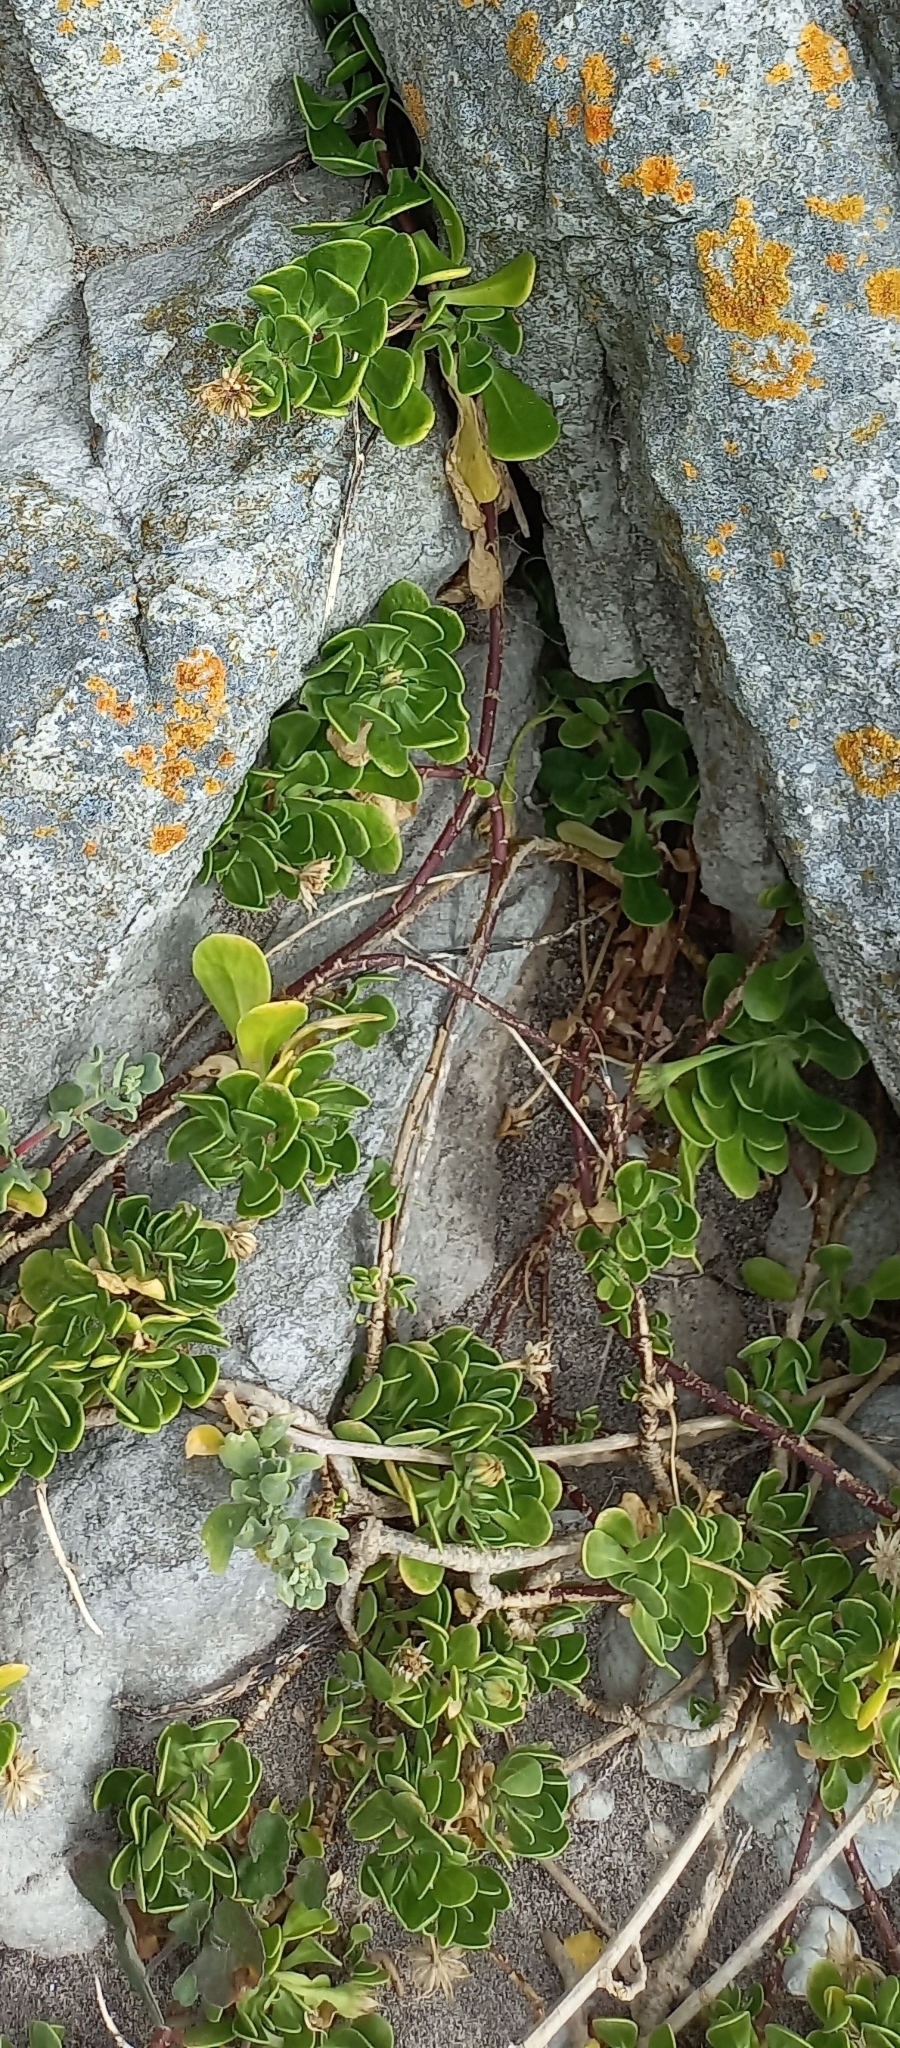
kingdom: Plantae
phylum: Tracheophyta
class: Magnoliopsida
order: Asterales
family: Asteraceae
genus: Dimorphotheca
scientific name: Dimorphotheca fruticosa
